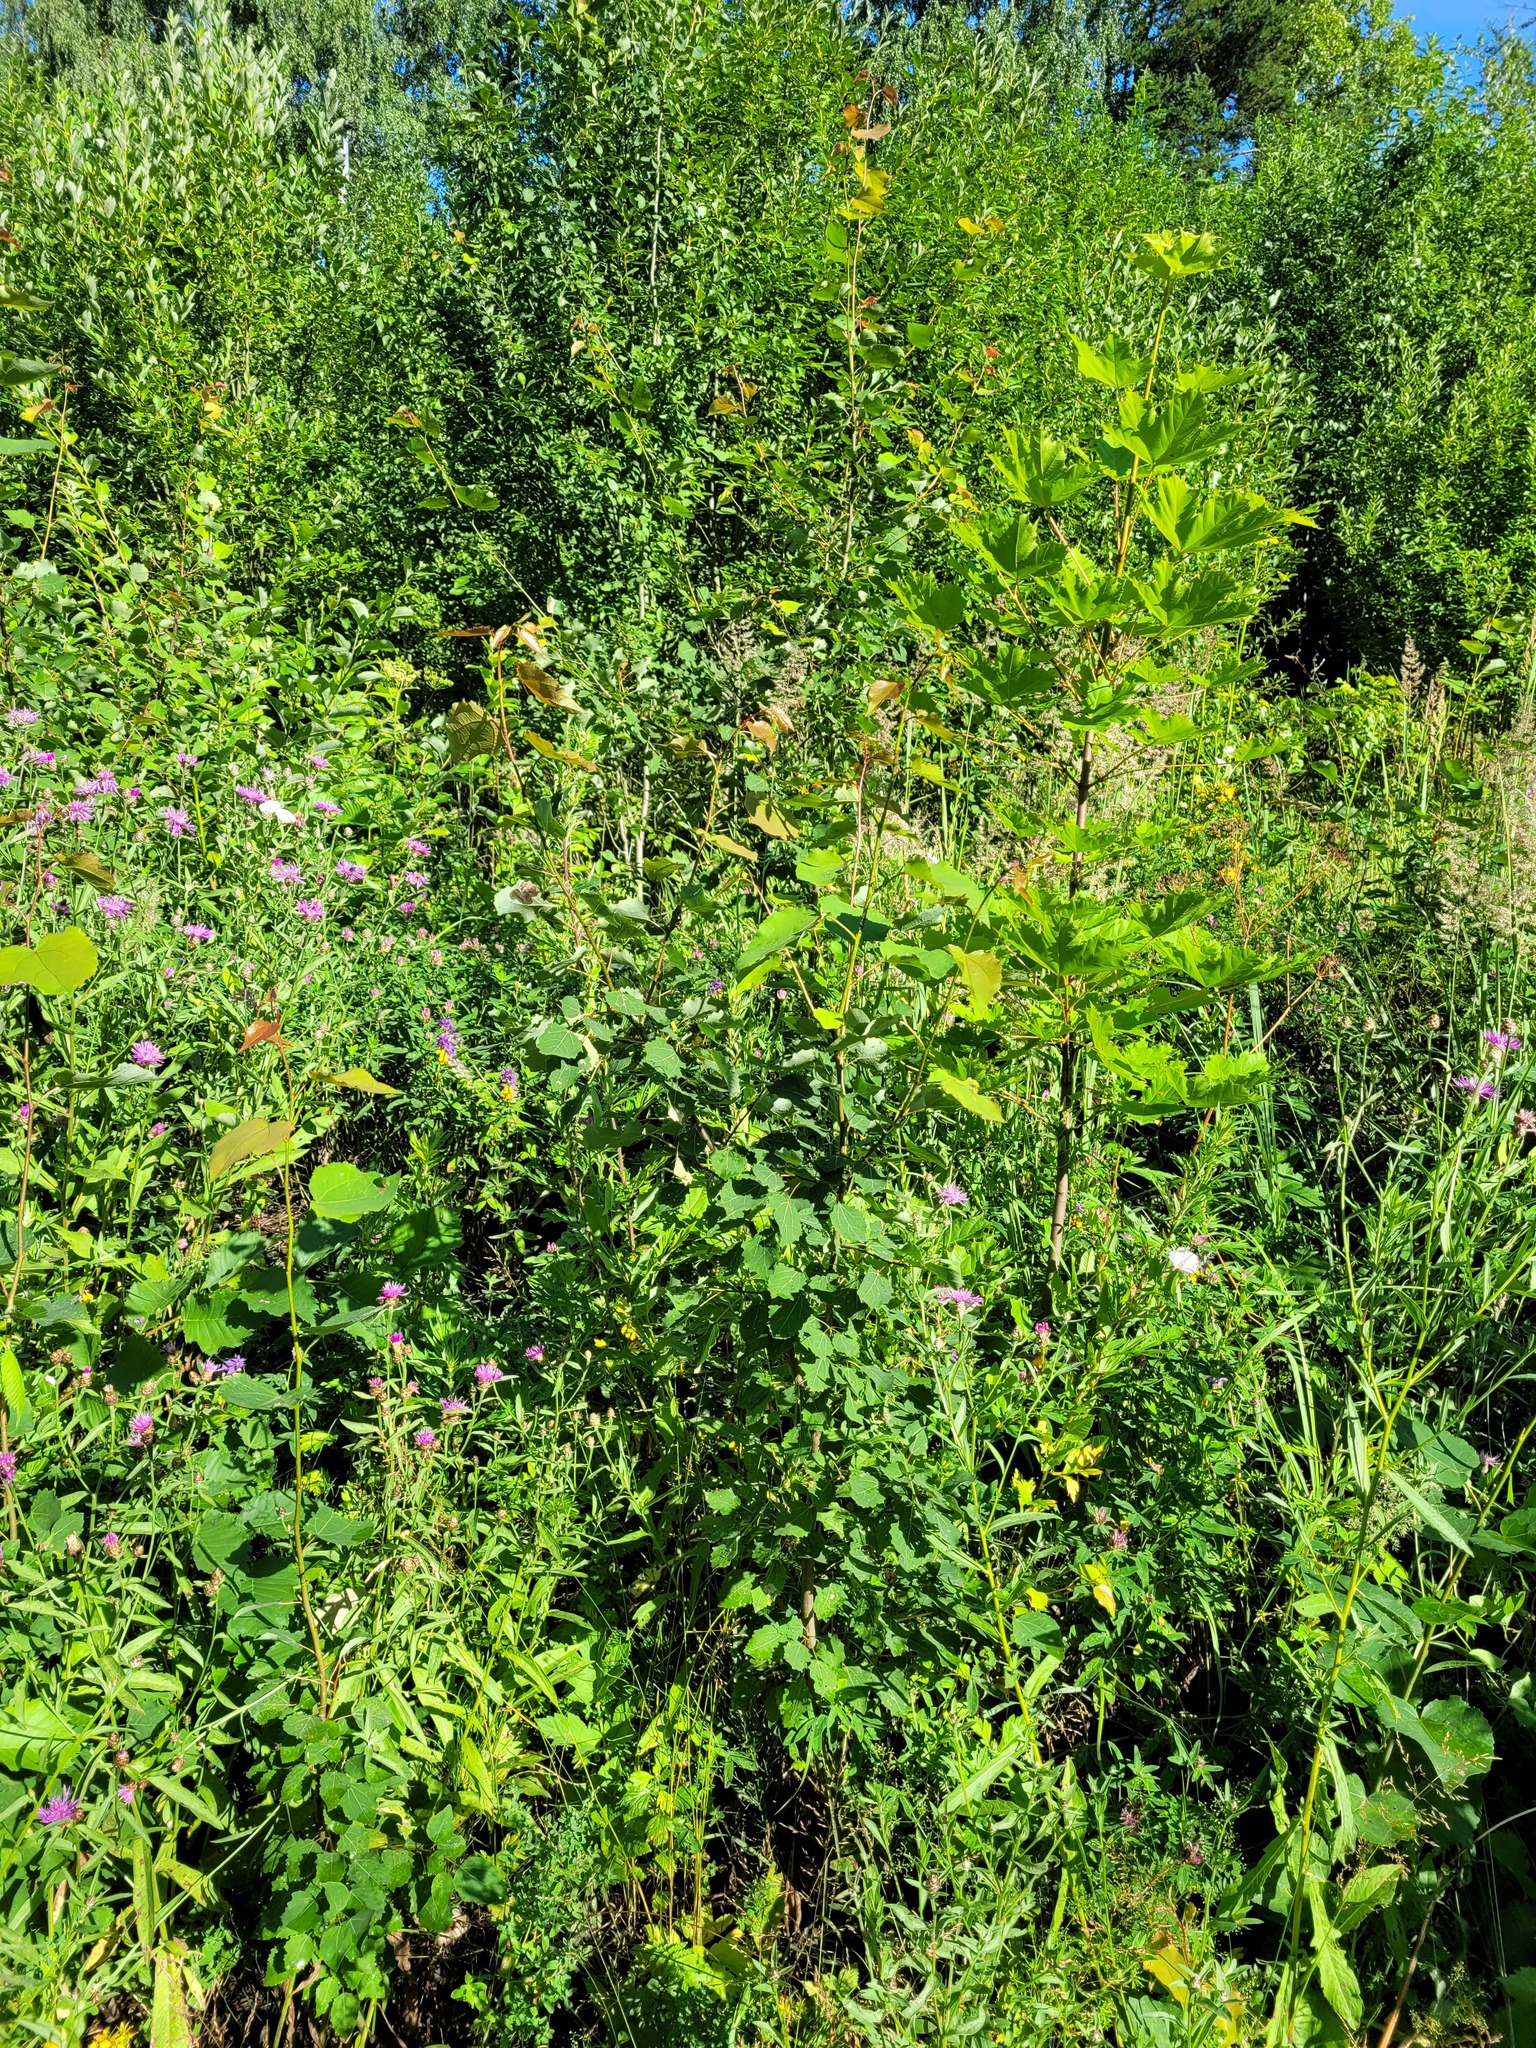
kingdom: Plantae
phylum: Tracheophyta
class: Magnoliopsida
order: Malpighiales
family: Salicaceae
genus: Populus
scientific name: Populus tremula
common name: European aspen
